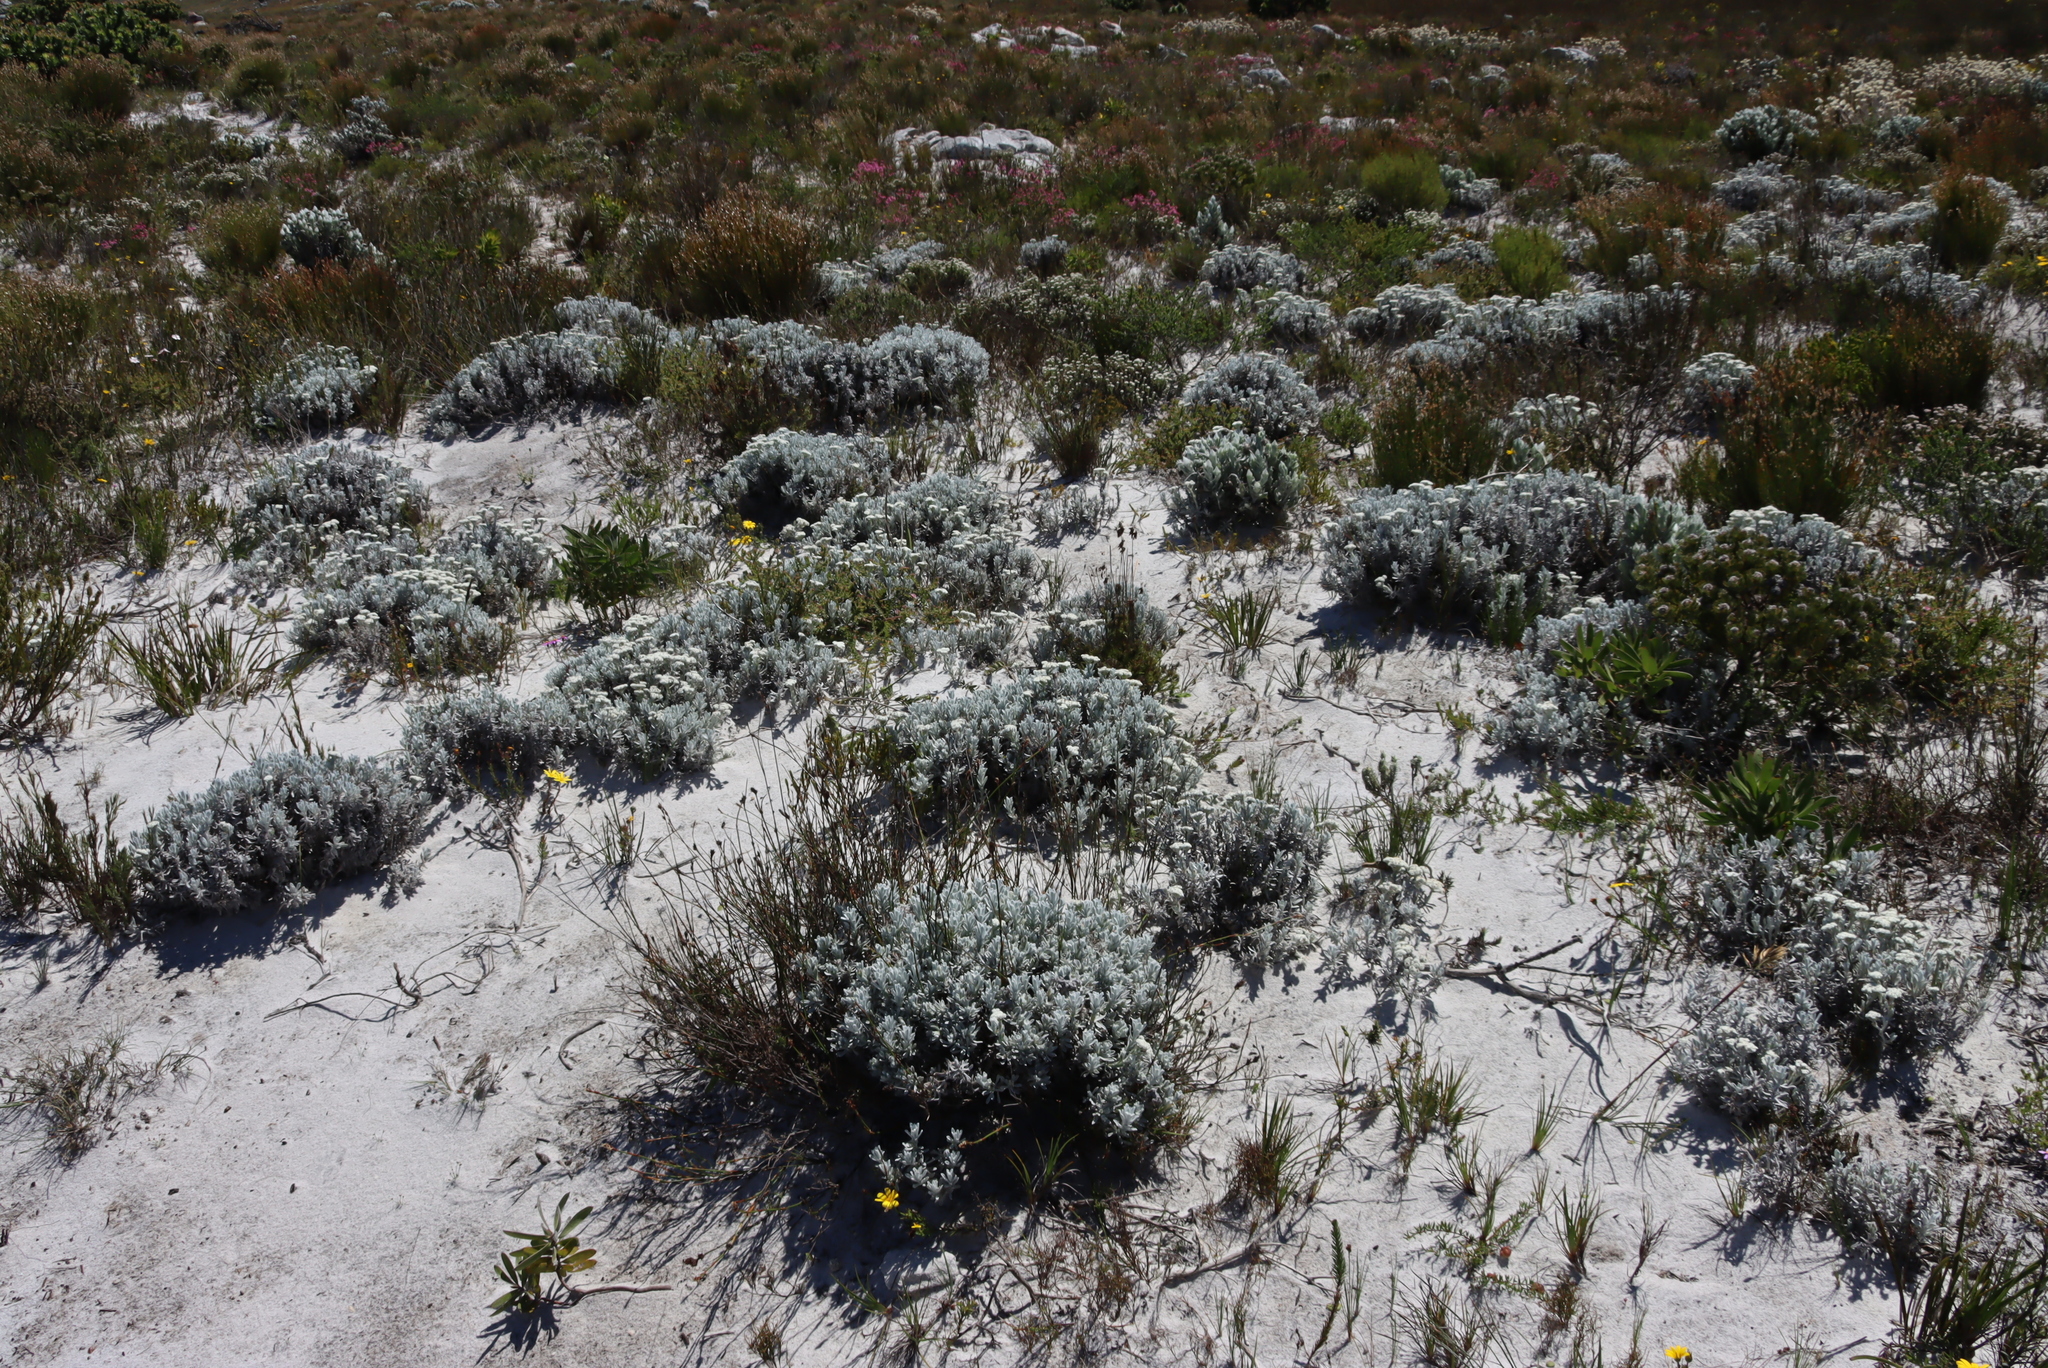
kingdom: Plantae
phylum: Tracheophyta
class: Magnoliopsida
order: Asterales
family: Asteraceae
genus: Petalacte
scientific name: Petalacte coronata
